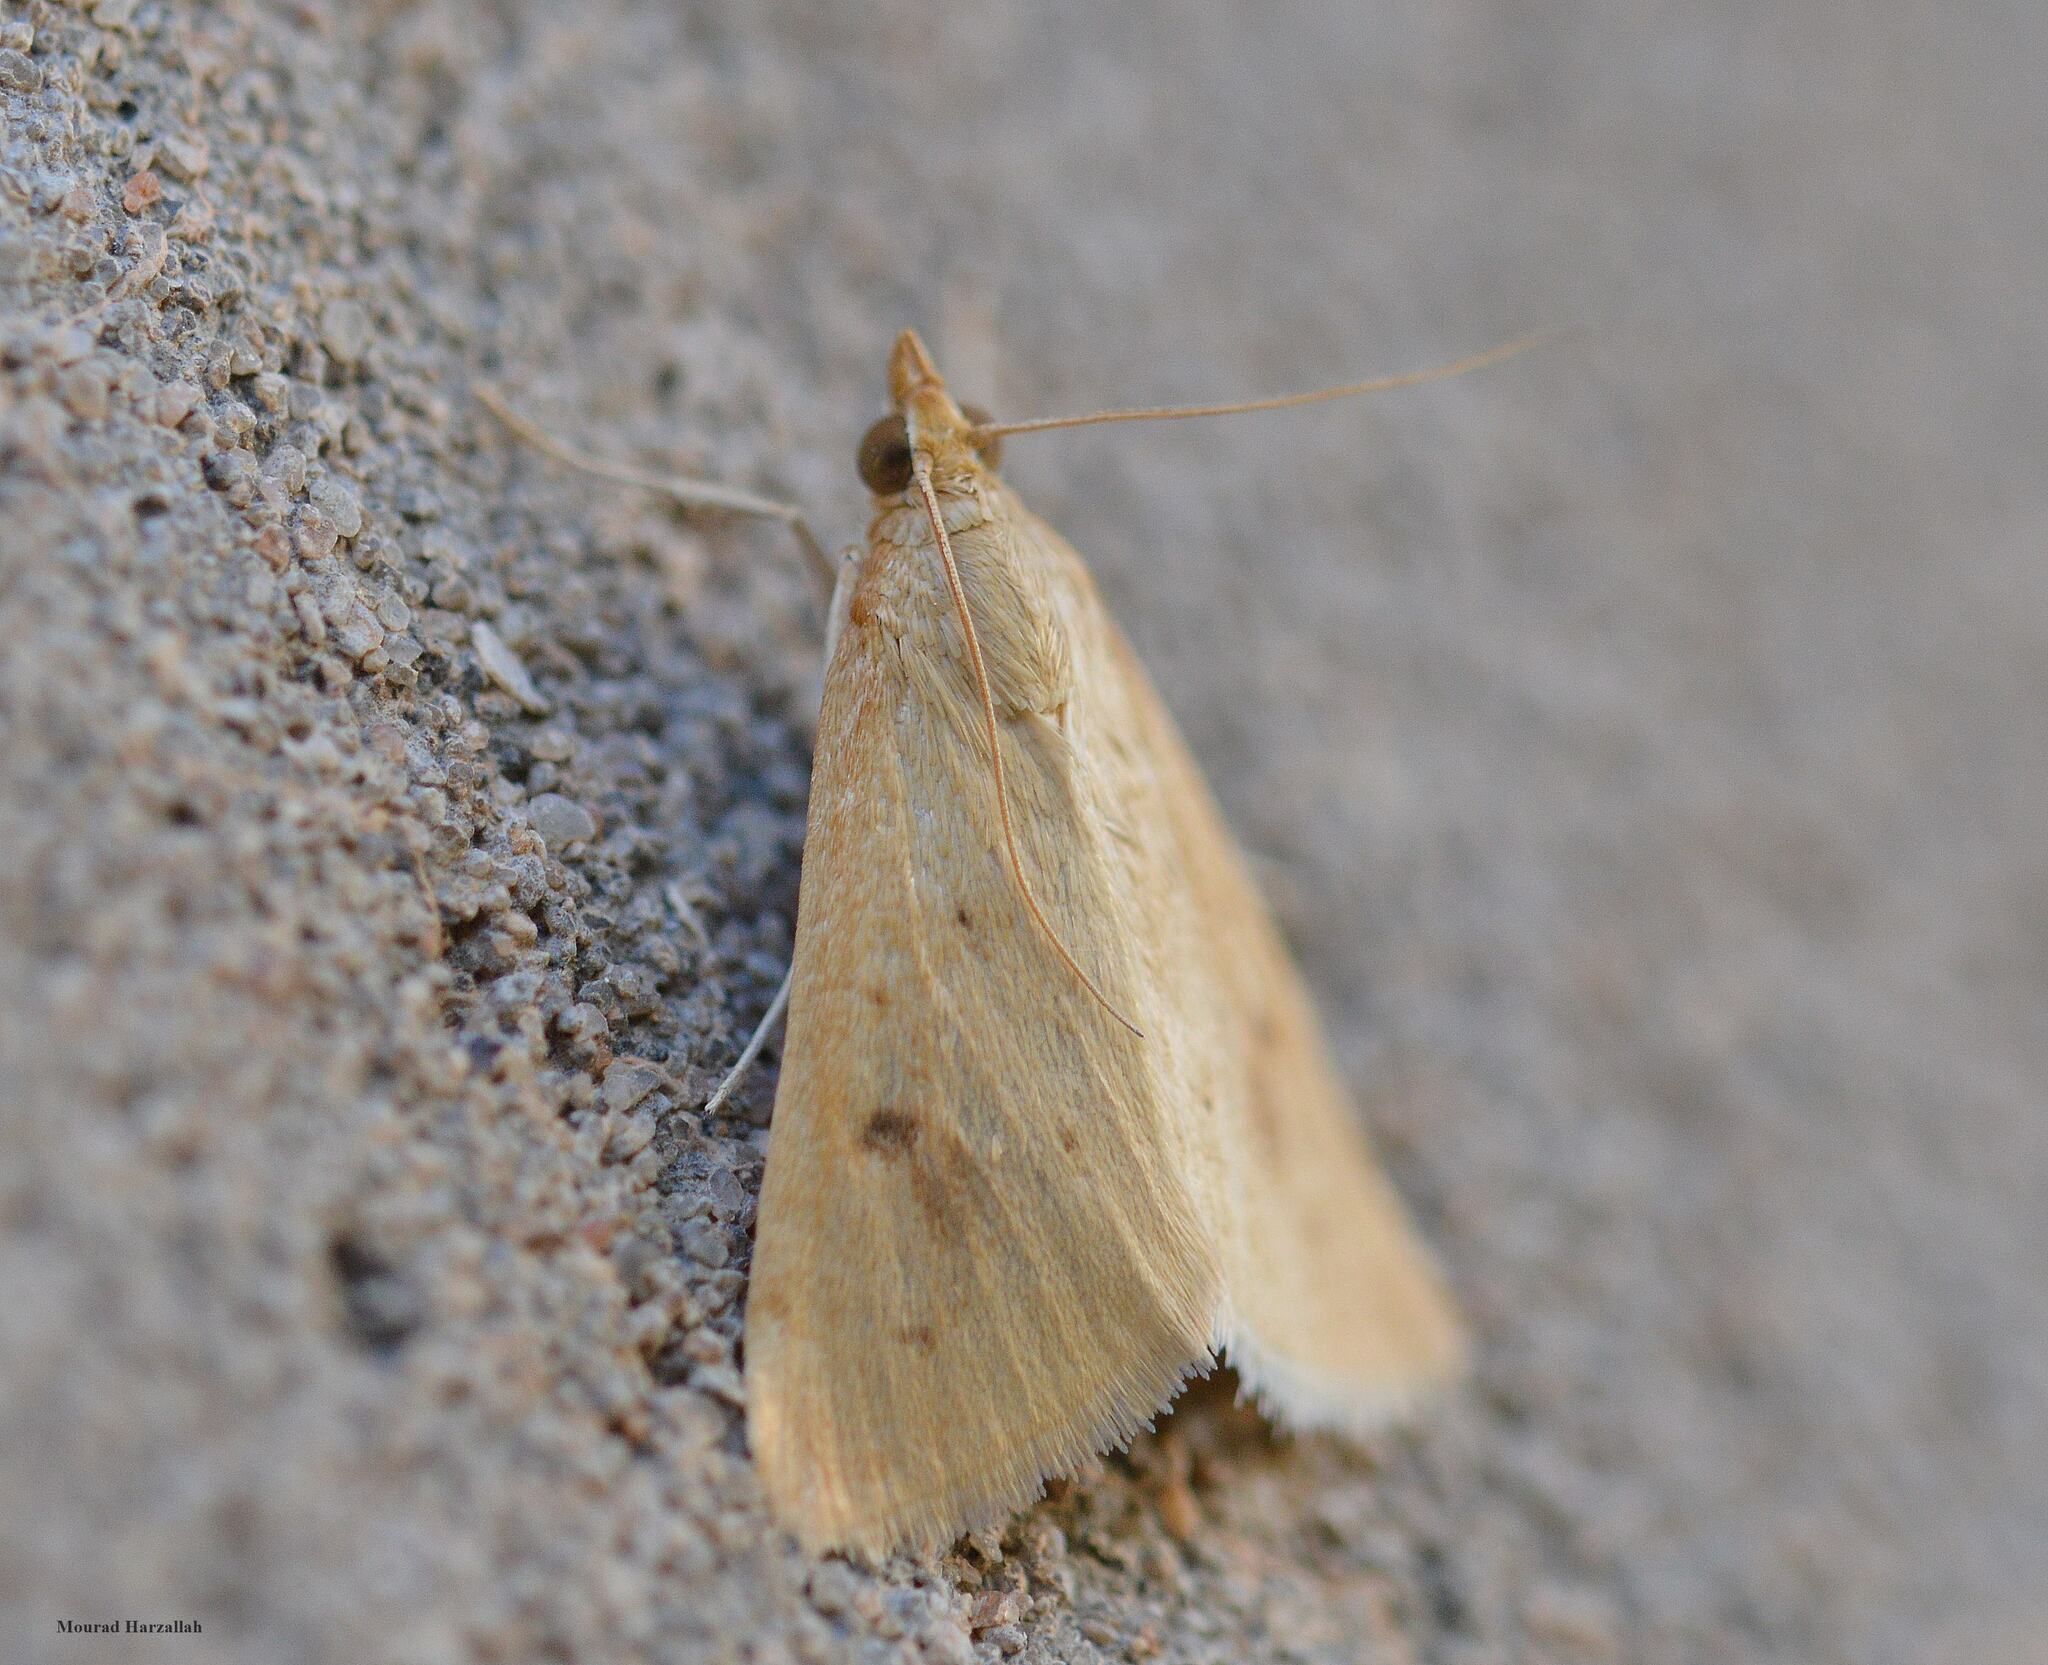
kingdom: Animalia
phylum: Arthropoda
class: Insecta
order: Lepidoptera
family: Crambidae
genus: Achyra
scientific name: Achyra nudalis
